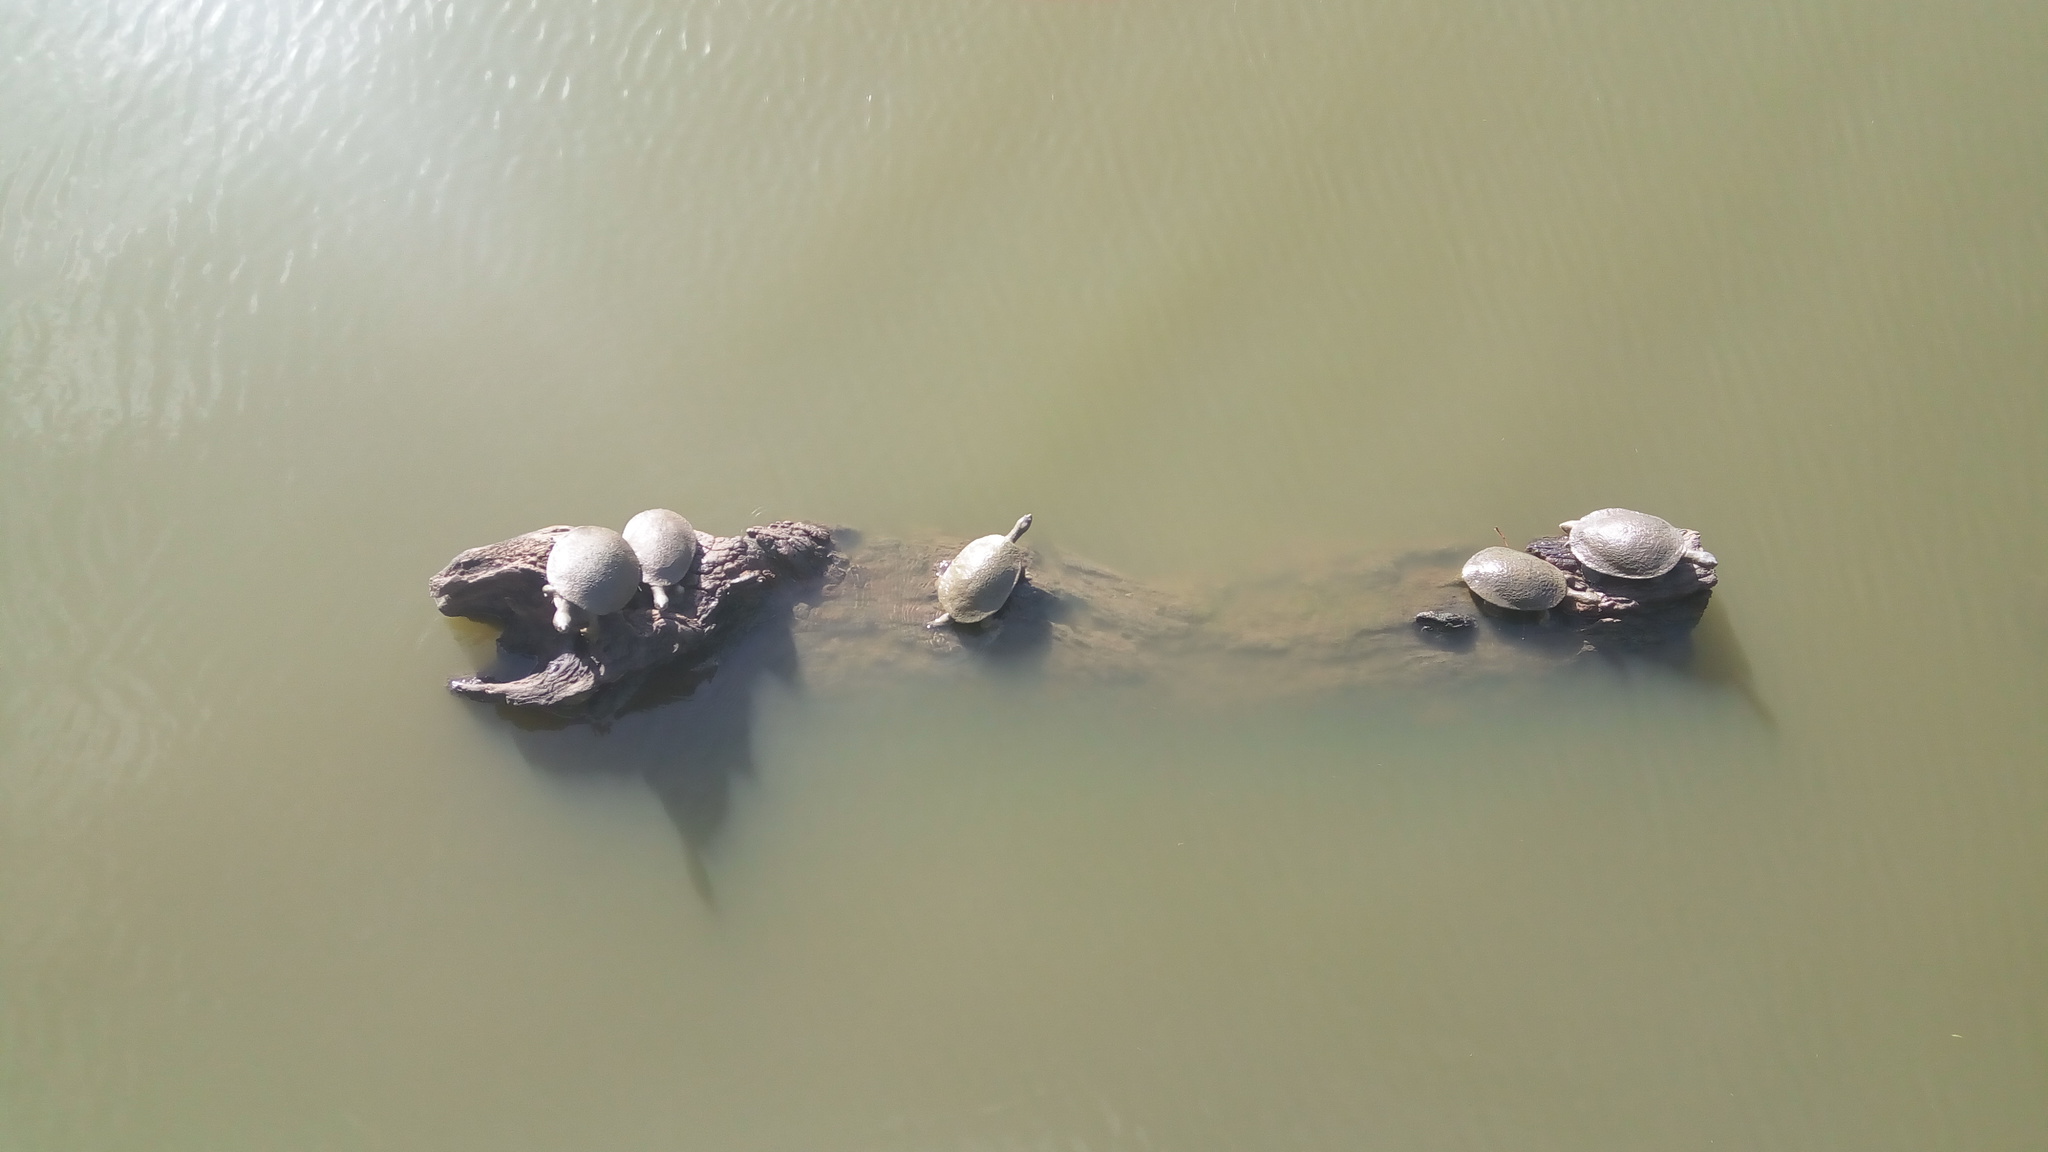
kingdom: Animalia
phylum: Chordata
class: Testudines
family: Chelidae
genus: Emydura
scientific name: Emydura macquarii
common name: Murray river turtle
